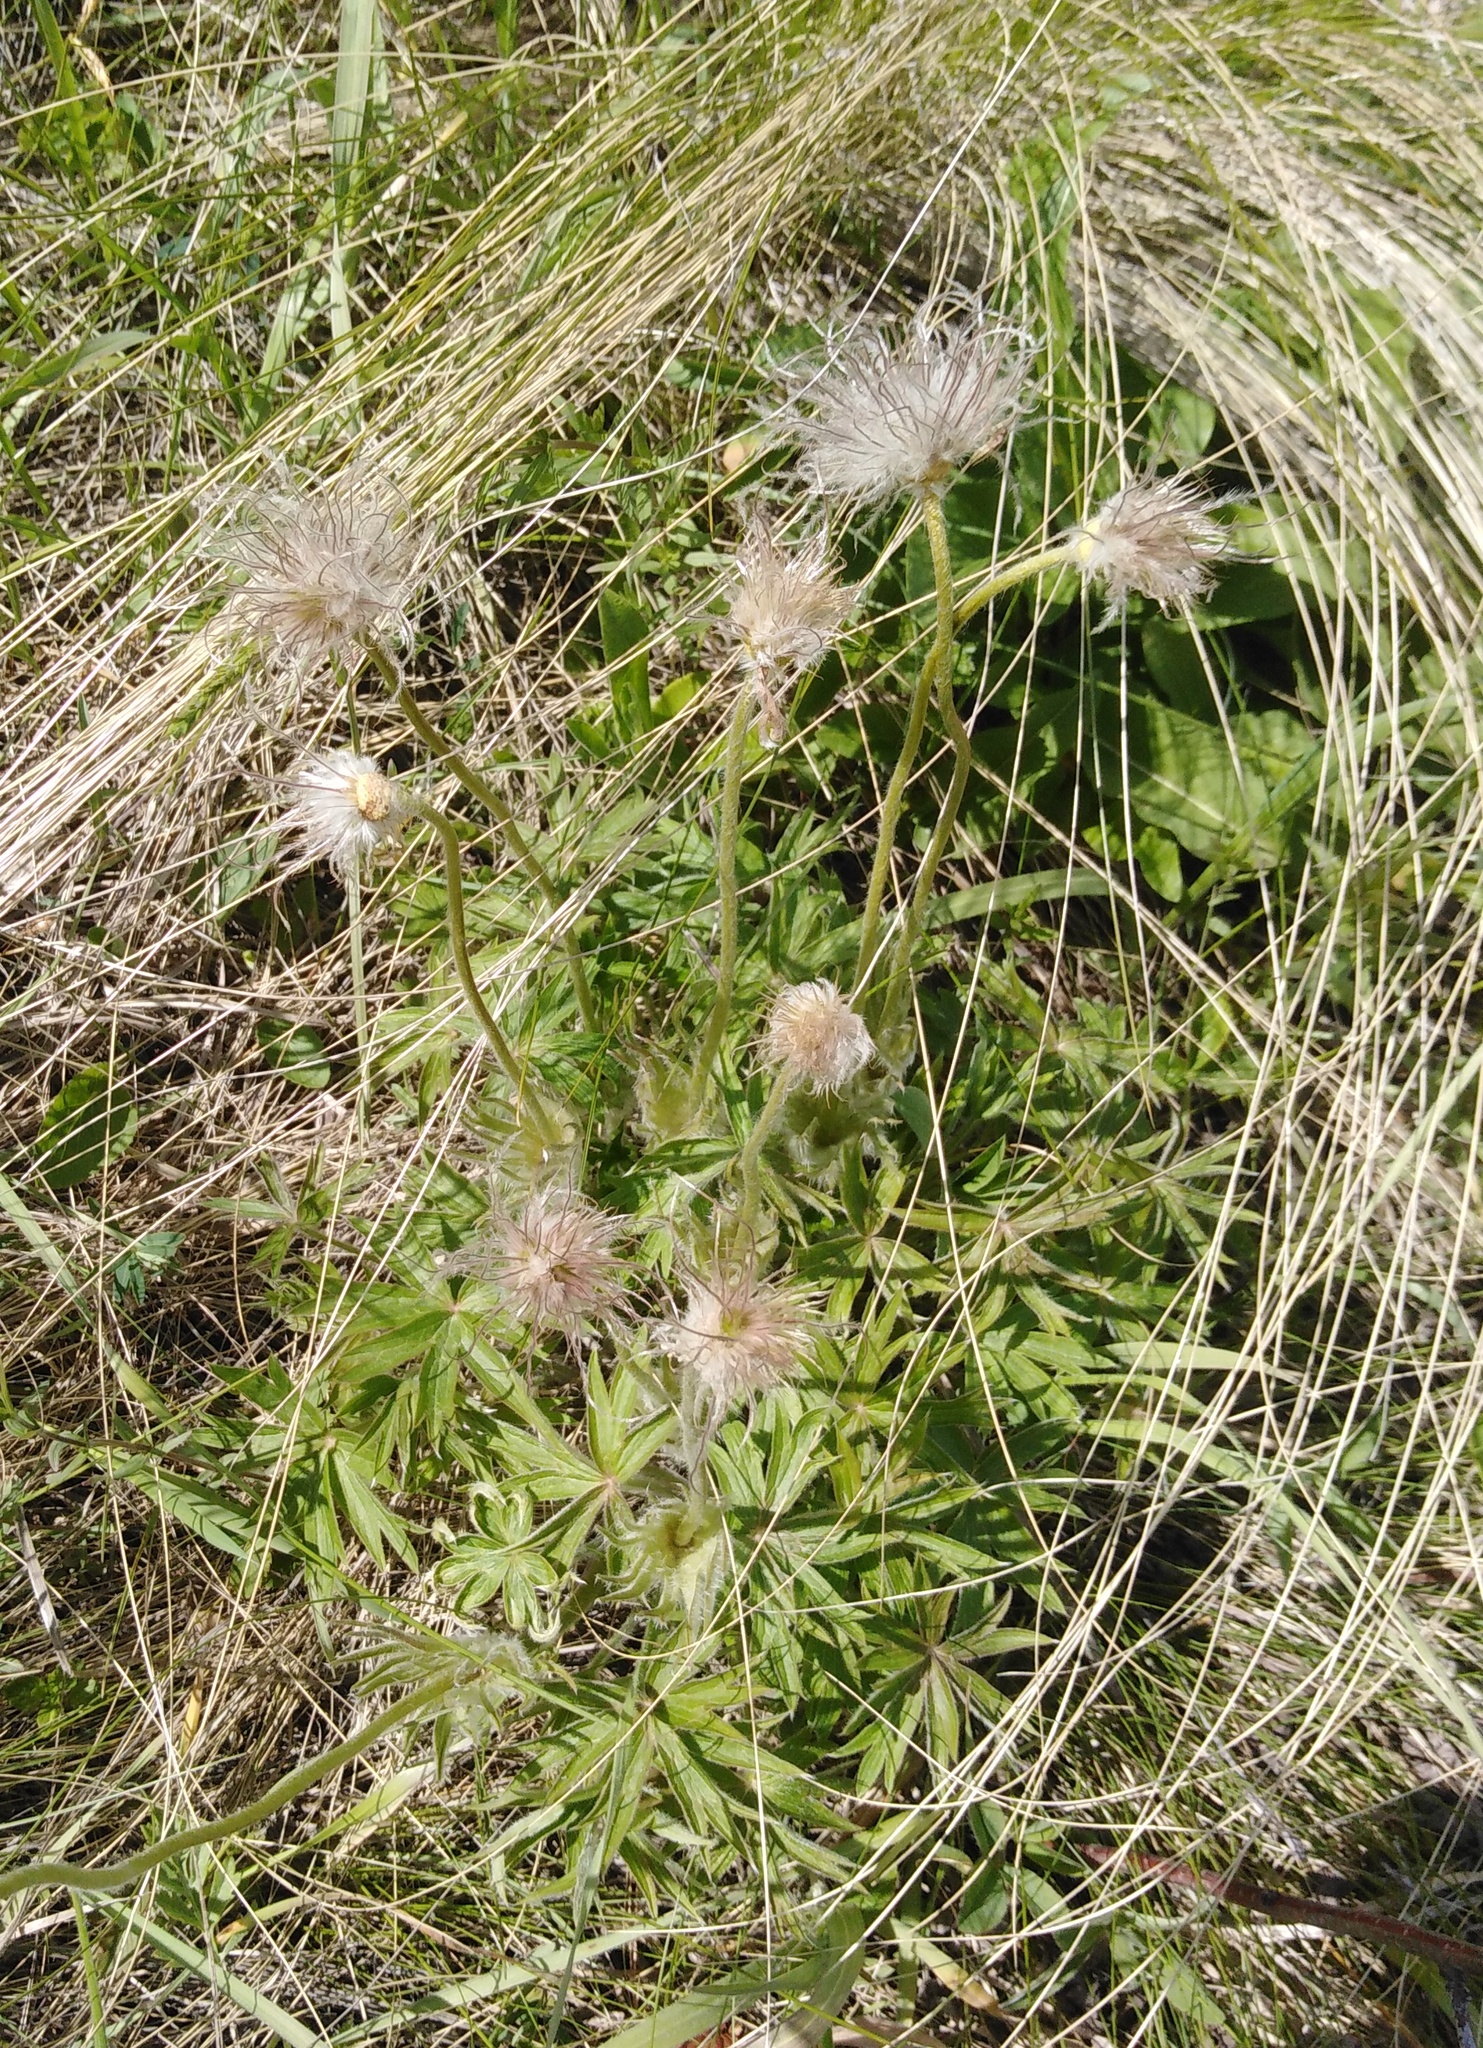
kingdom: Plantae
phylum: Tracheophyta
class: Magnoliopsida
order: Ranunculales
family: Ranunculaceae
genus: Pulsatilla
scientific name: Pulsatilla patens
